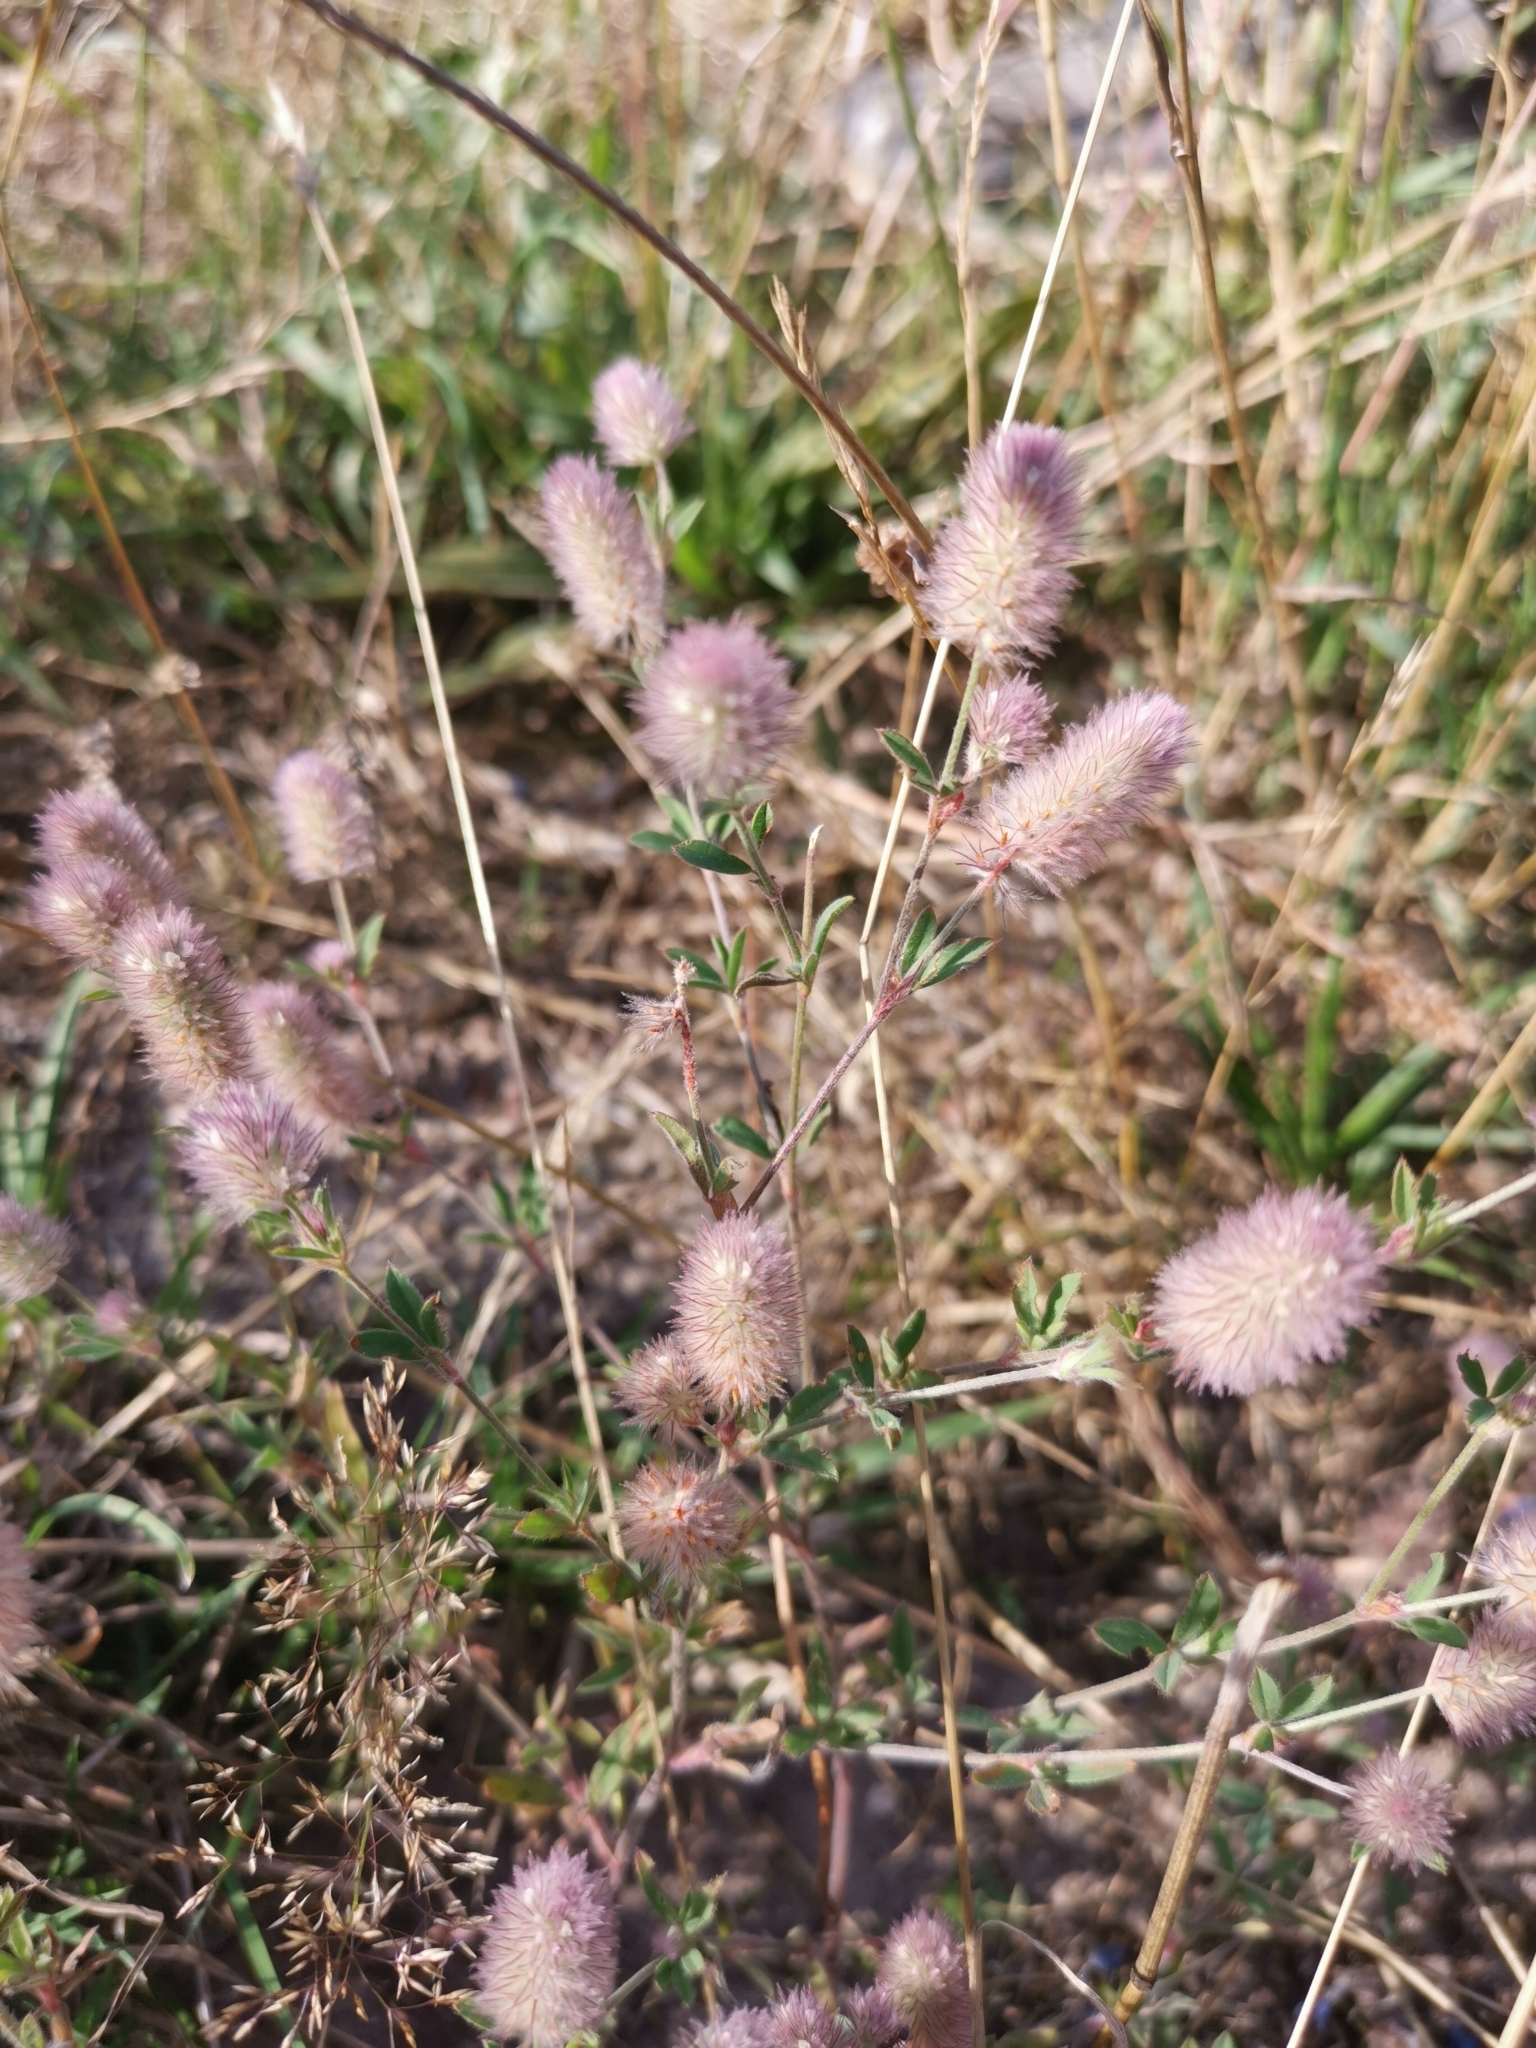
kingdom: Plantae
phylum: Tracheophyta
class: Magnoliopsida
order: Fabales
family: Fabaceae
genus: Trifolium
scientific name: Trifolium arvense
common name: Hare's-foot clover
